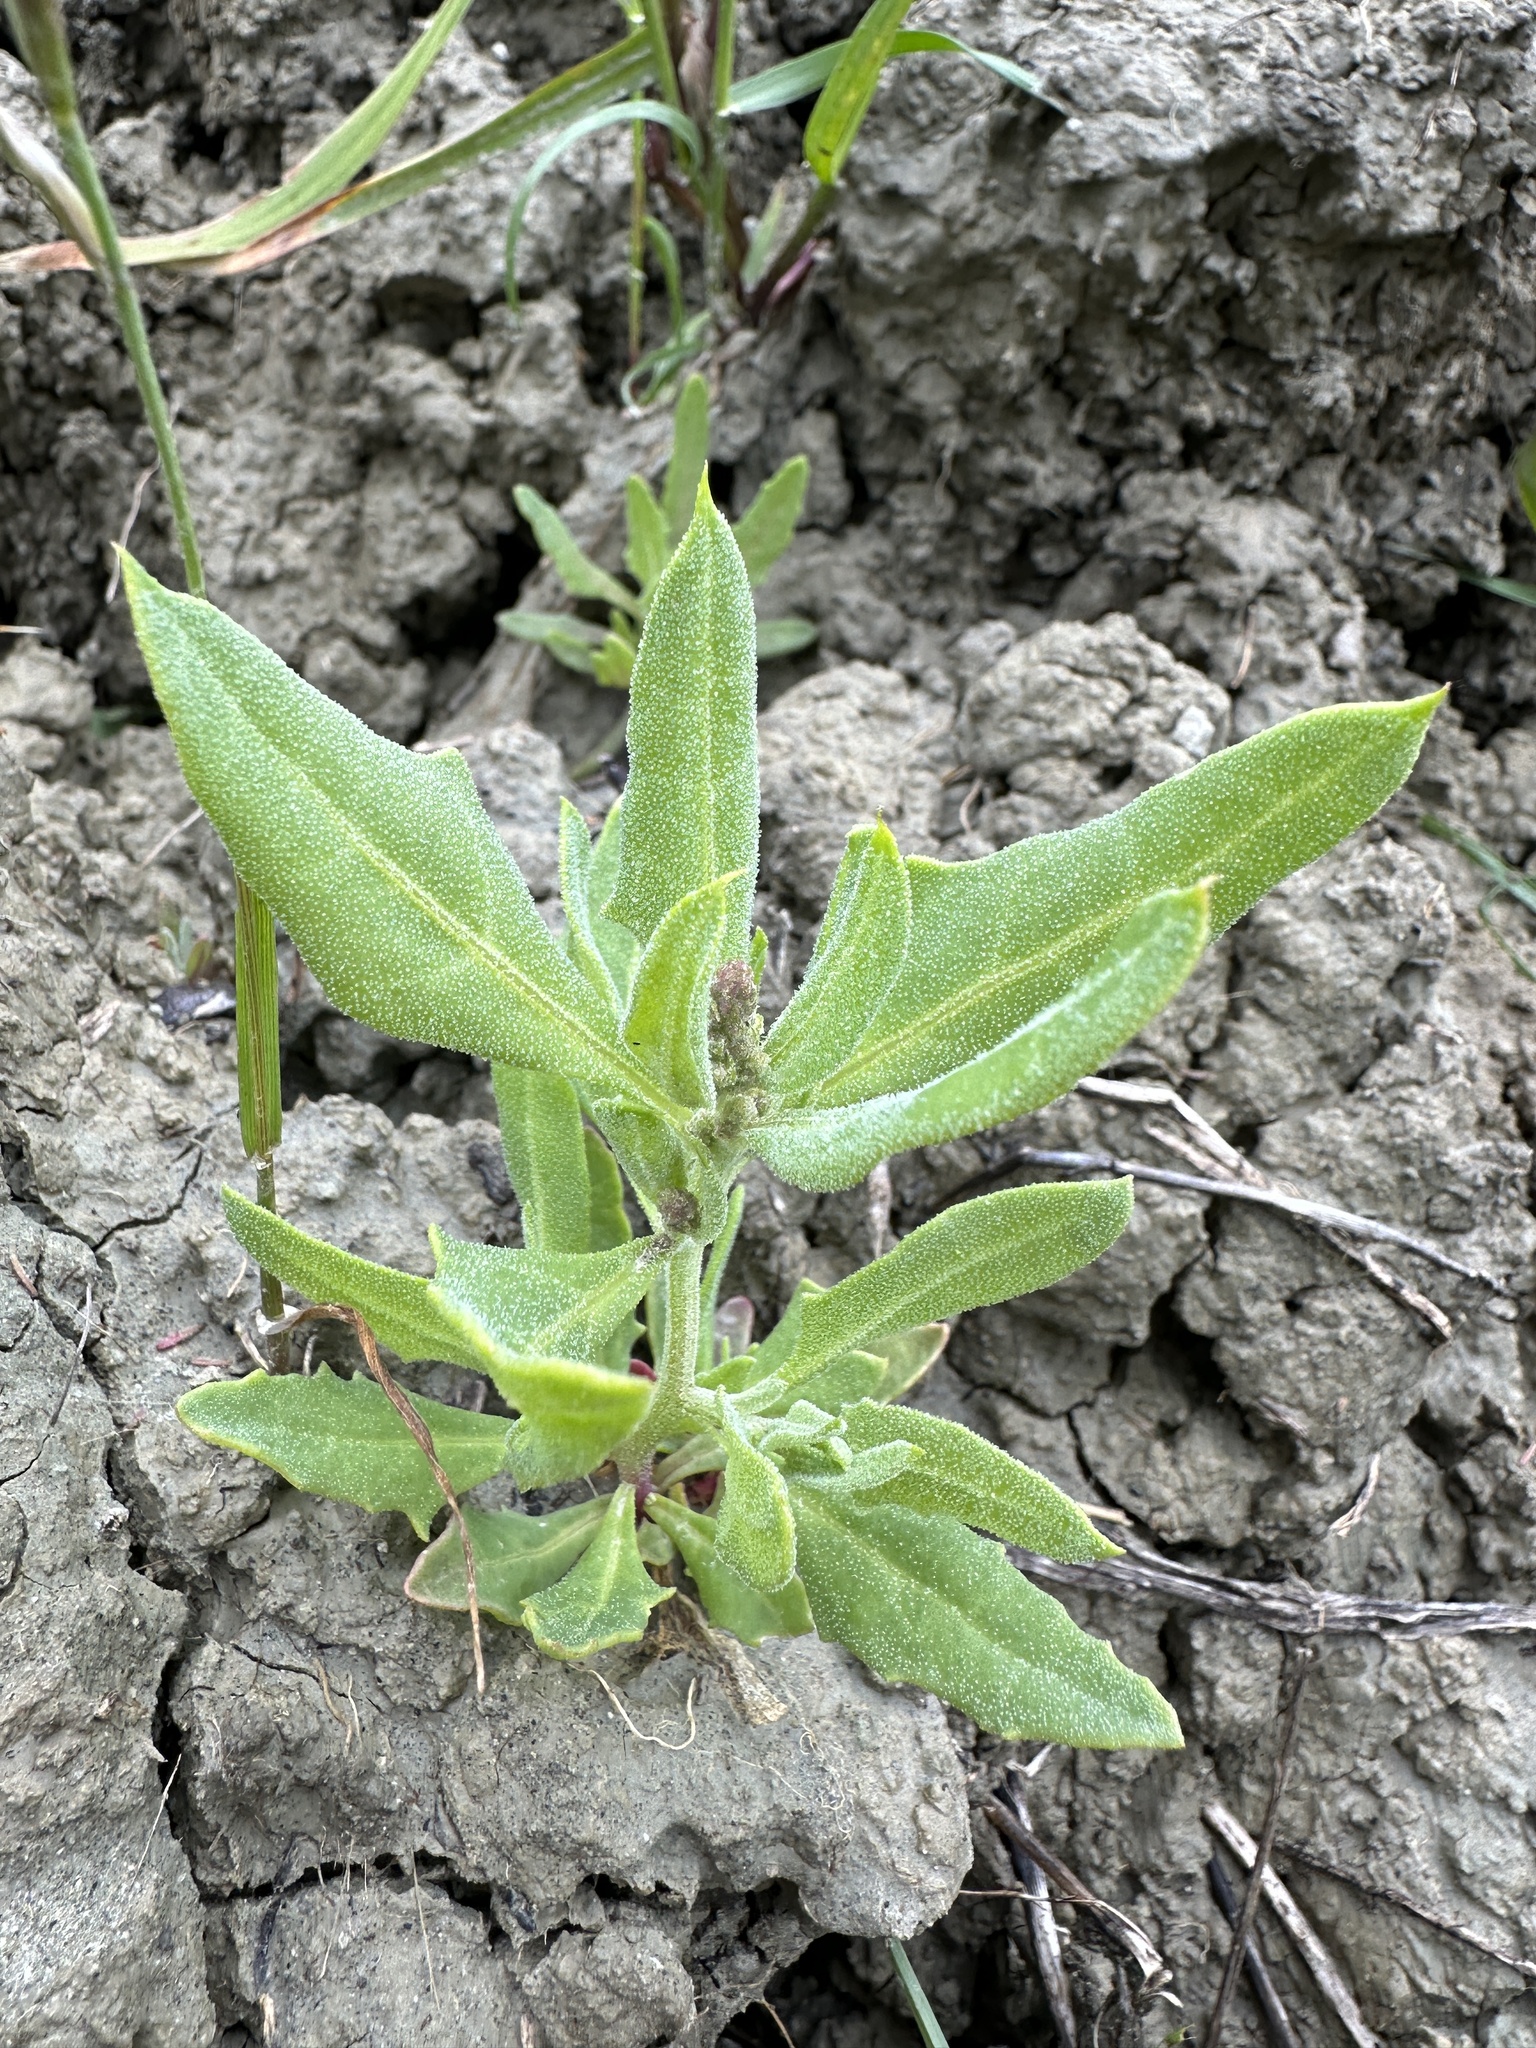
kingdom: Plantae
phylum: Tracheophyta
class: Magnoliopsida
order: Caryophyllales
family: Amaranthaceae
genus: Extriplex
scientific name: Extriplex joaquinana
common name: San joaquin saltbush
